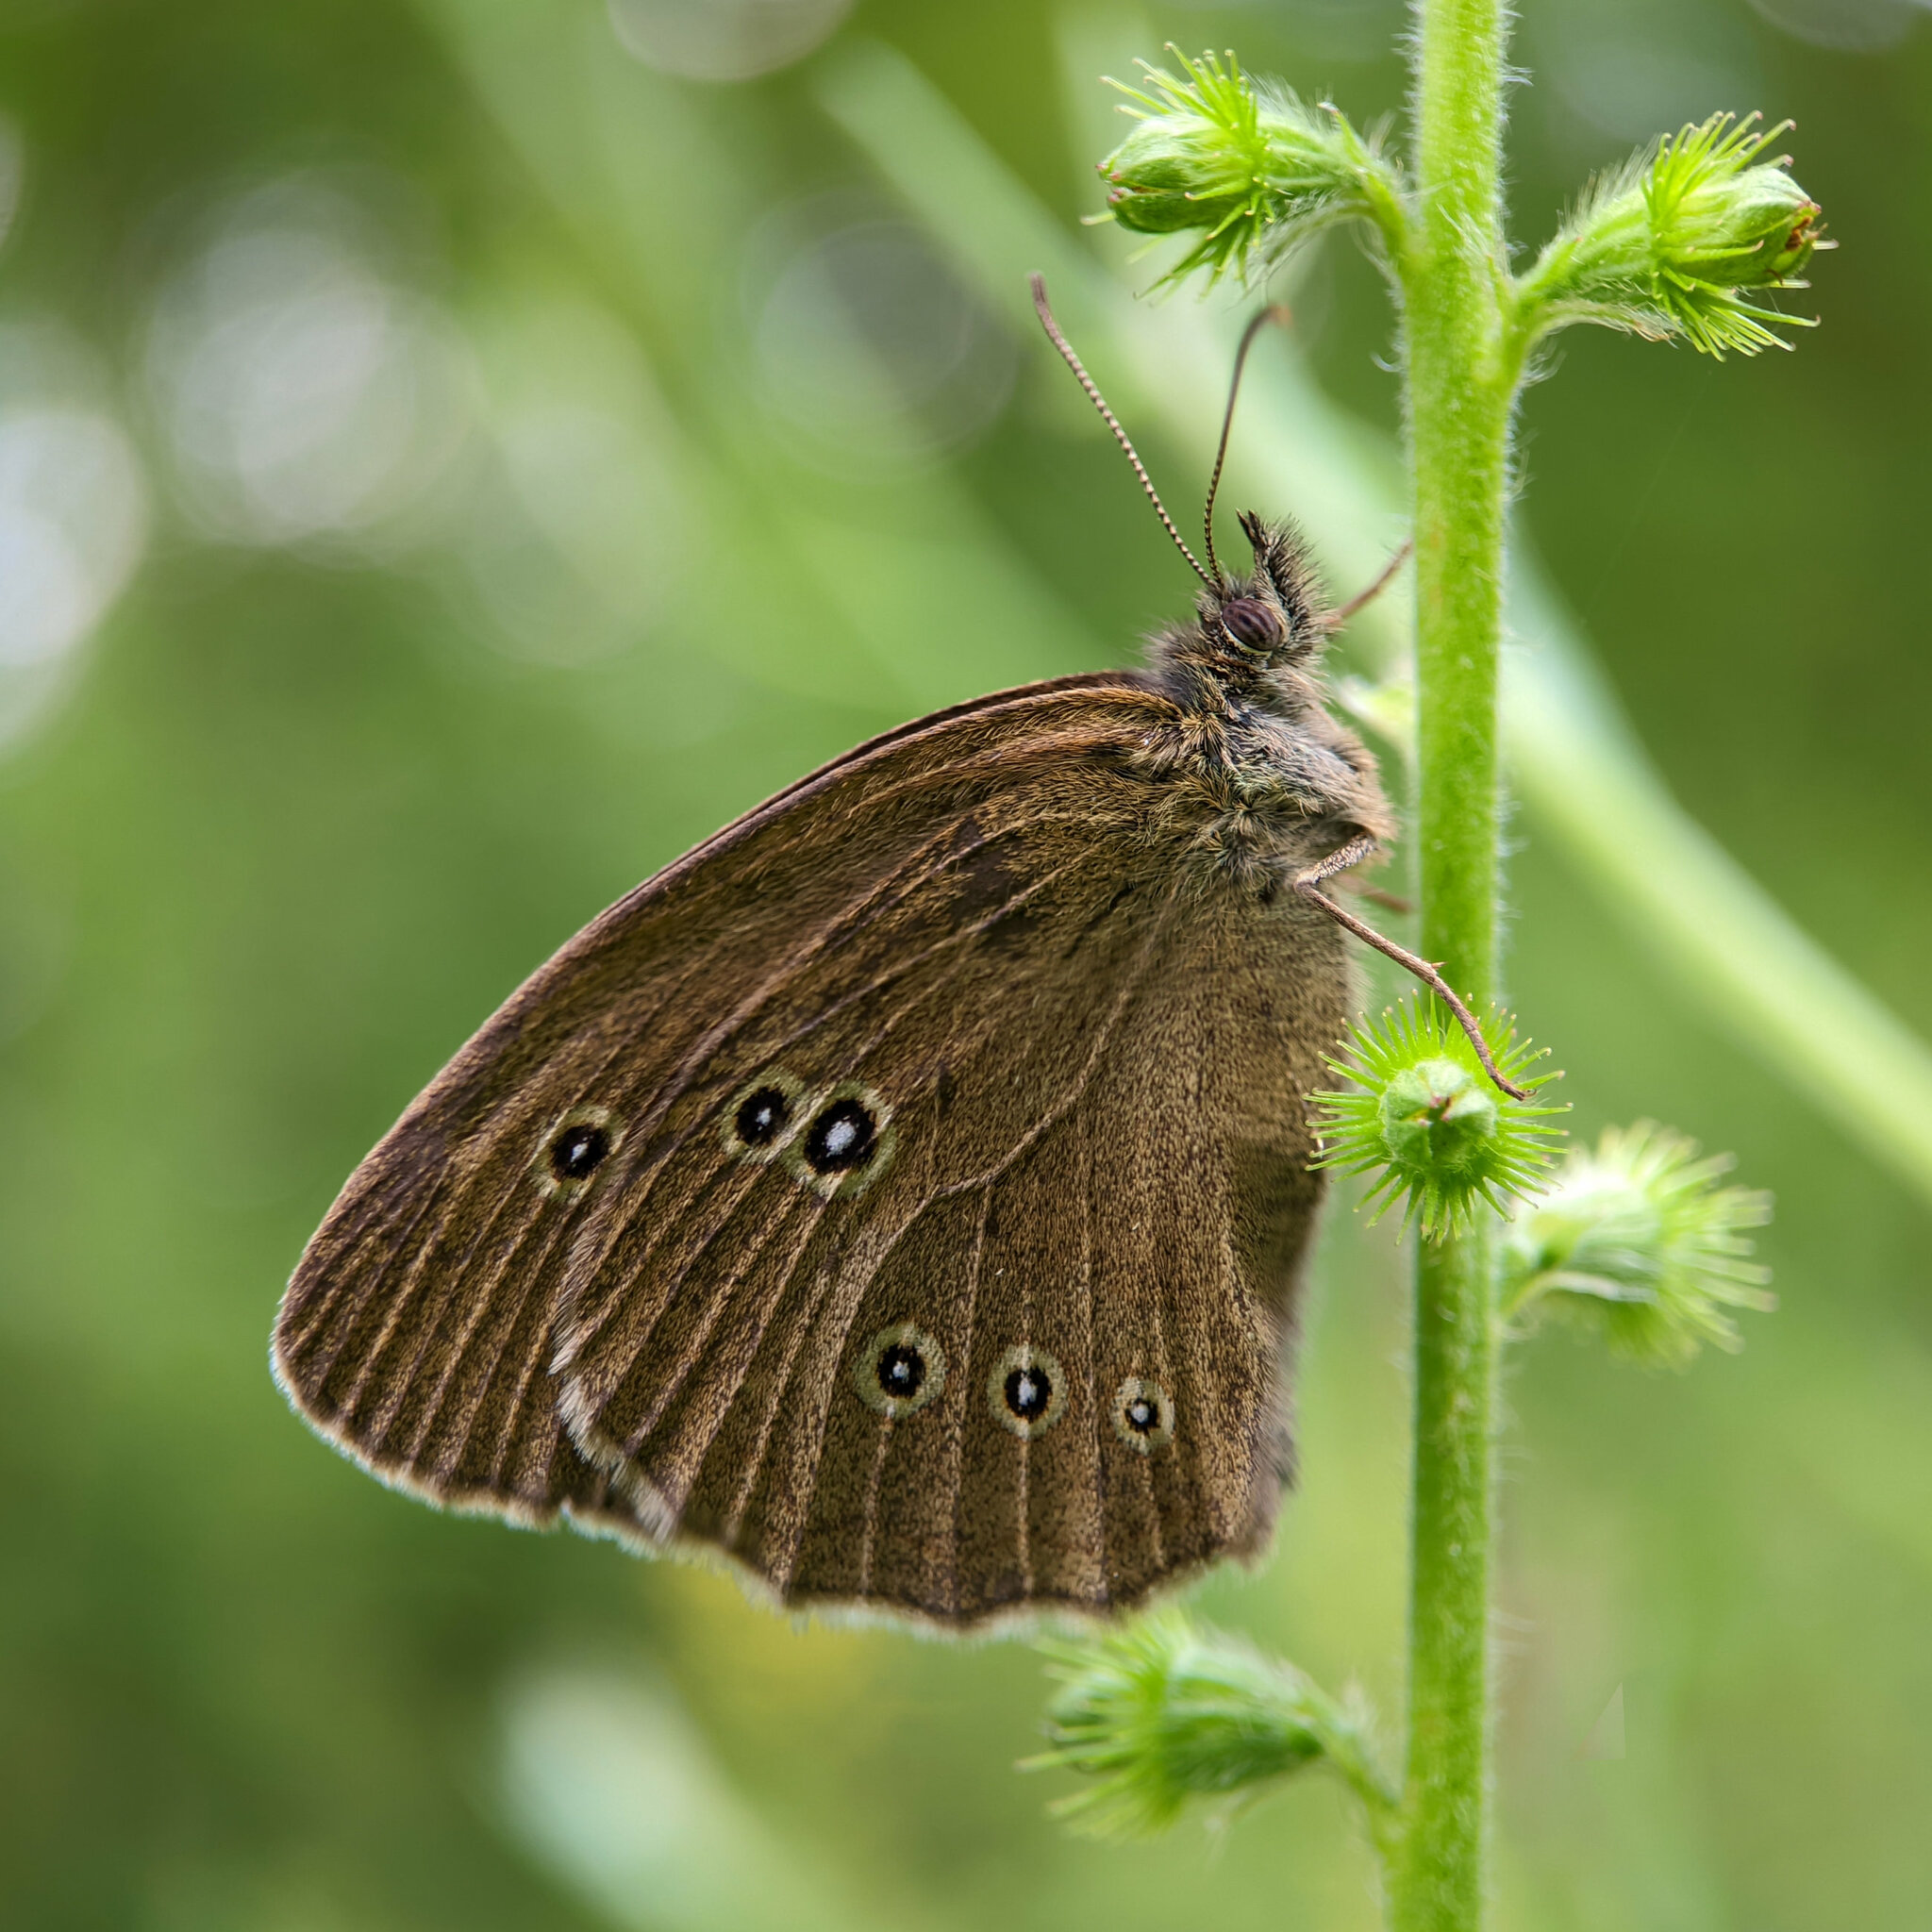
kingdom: Animalia
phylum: Arthropoda
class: Insecta
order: Lepidoptera
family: Nymphalidae
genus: Aphantopus
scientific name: Aphantopus hyperantus
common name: Ringlet
